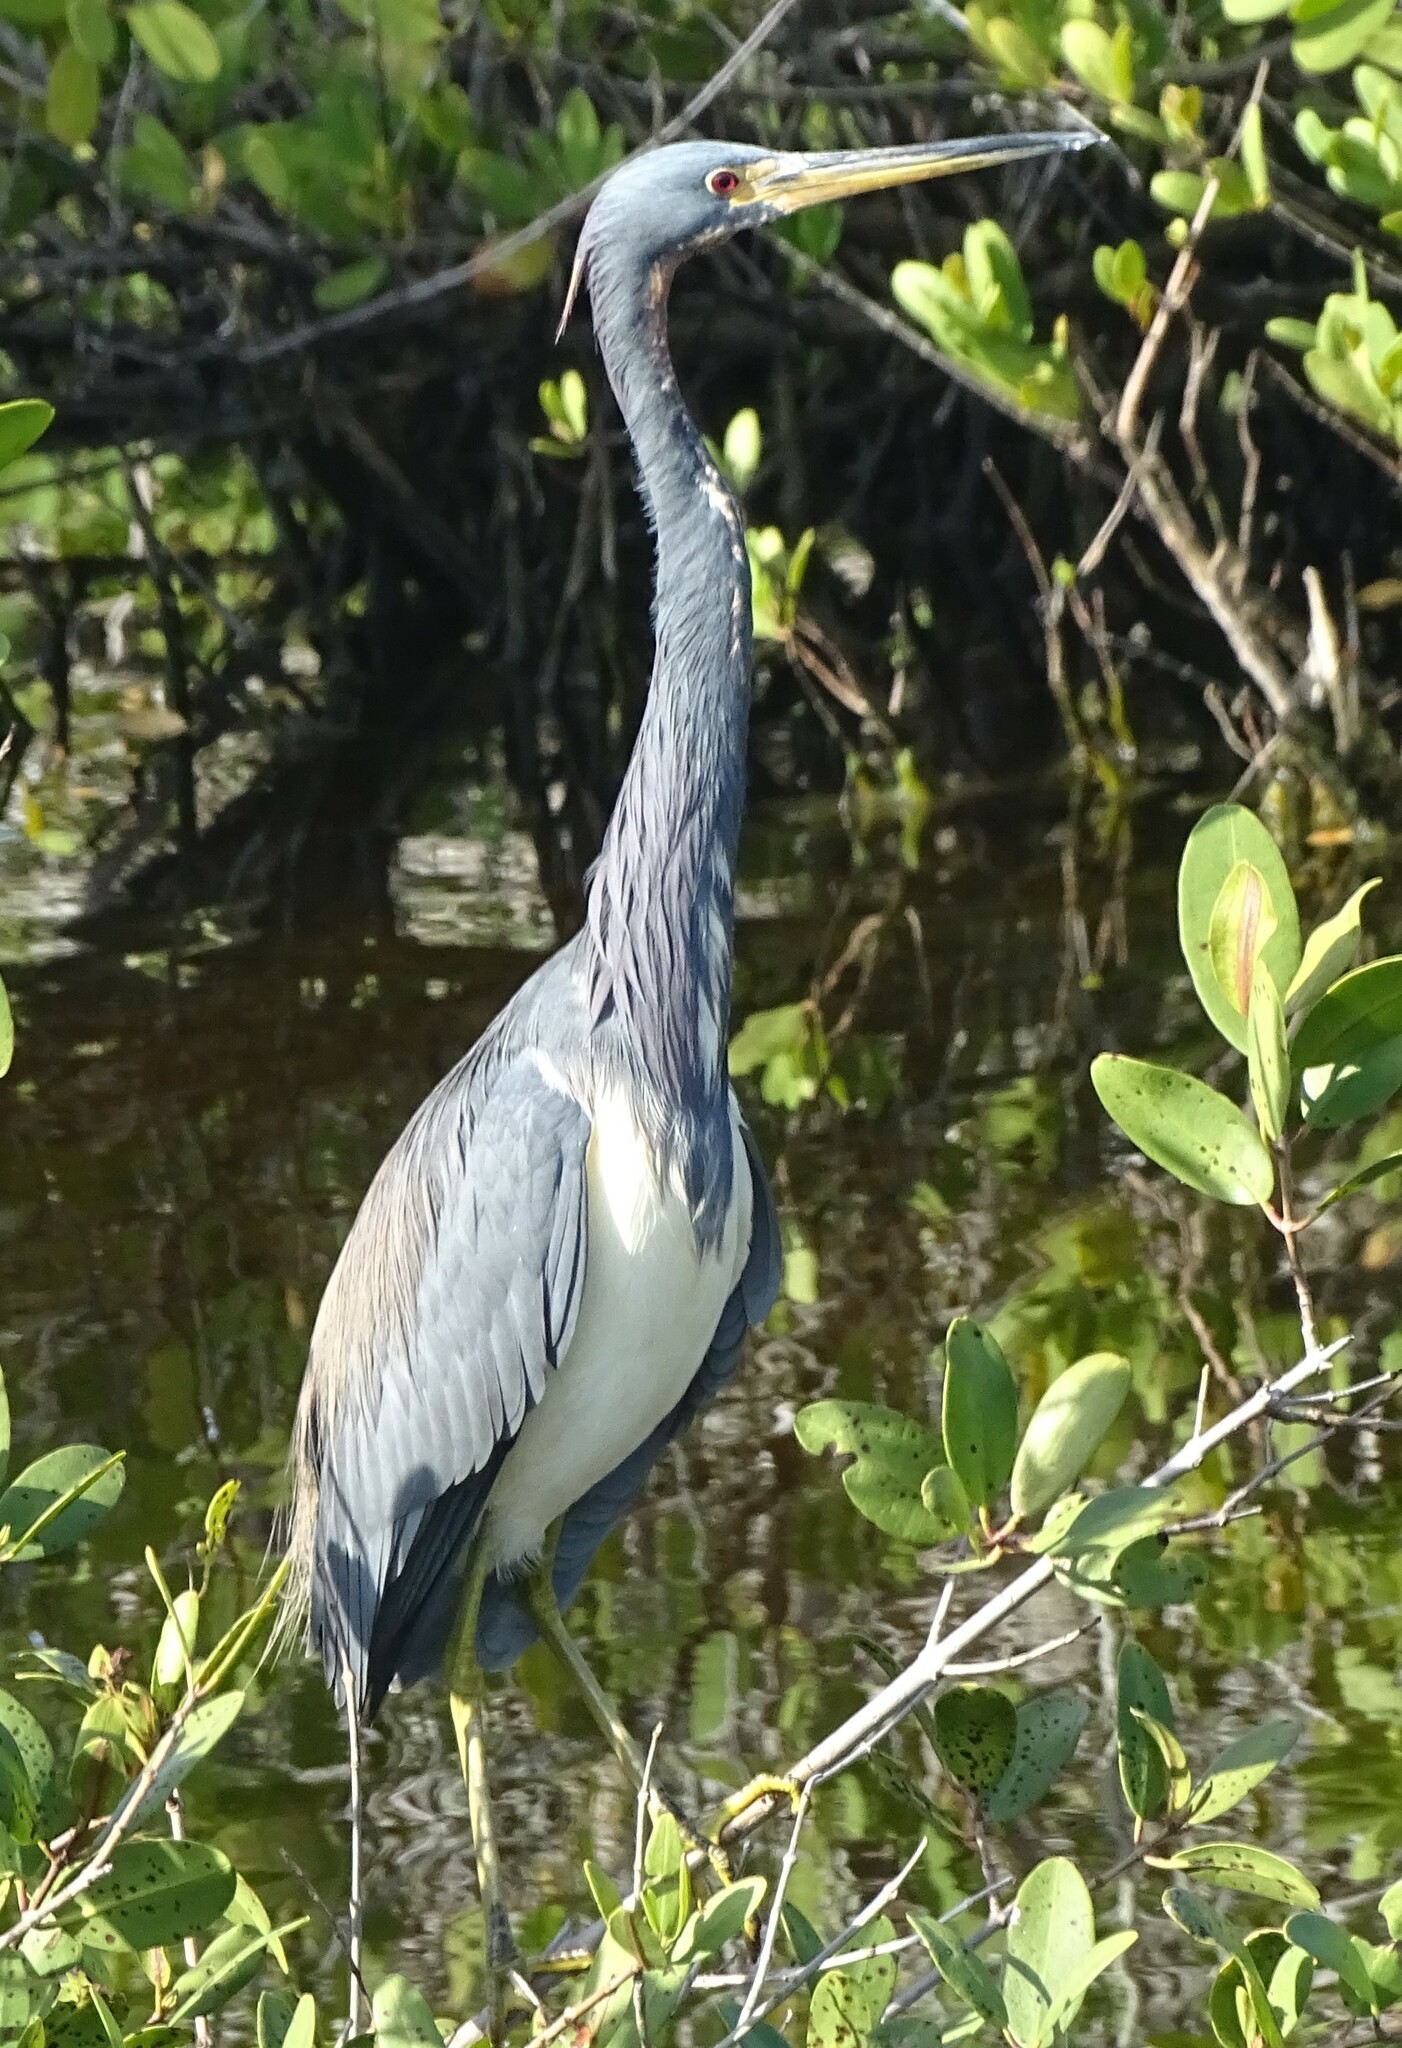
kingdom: Animalia
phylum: Chordata
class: Aves
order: Pelecaniformes
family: Ardeidae
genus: Egretta
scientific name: Egretta tricolor
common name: Tricolored heron
